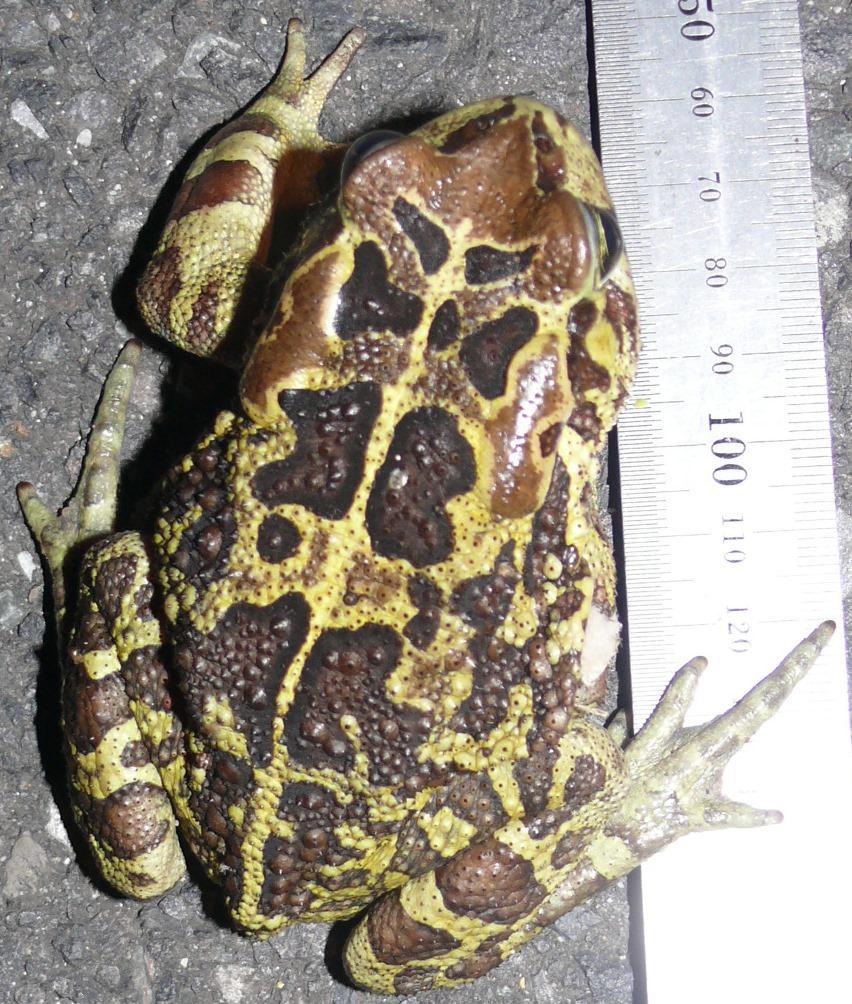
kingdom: Animalia
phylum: Chordata
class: Amphibia
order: Anura
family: Bufonidae
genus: Sclerophrys
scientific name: Sclerophrys pantherina
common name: Panther toad
